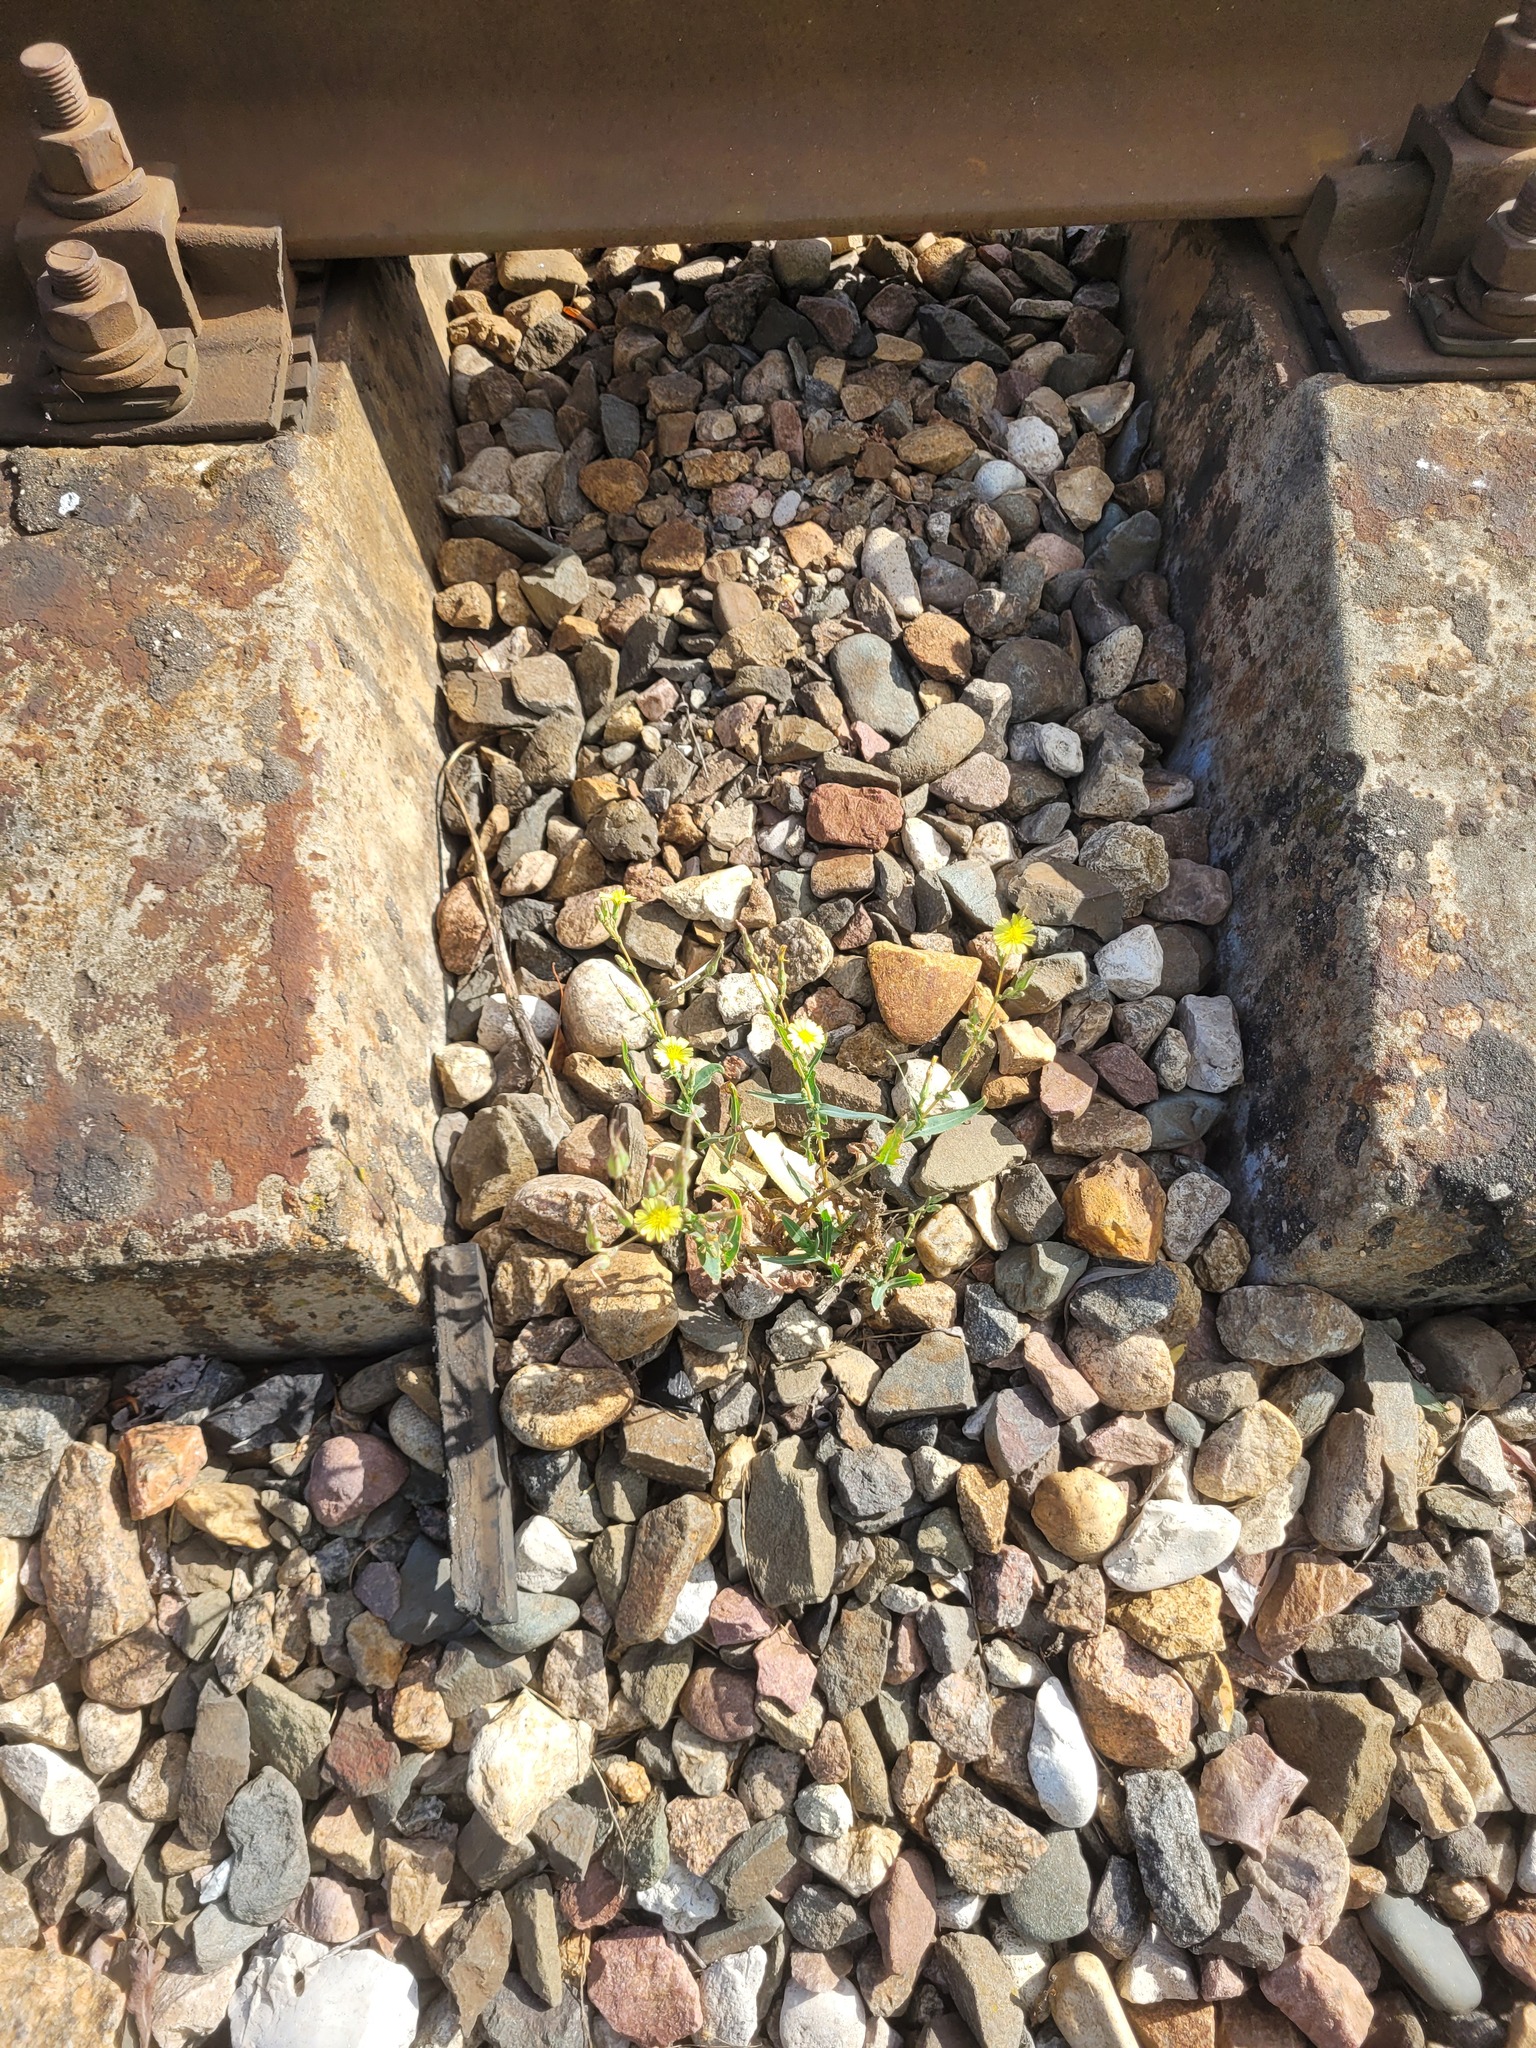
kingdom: Plantae
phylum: Tracheophyta
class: Magnoliopsida
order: Asterales
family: Asteraceae
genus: Lactuca
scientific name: Lactuca serriola
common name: Prickly lettuce
